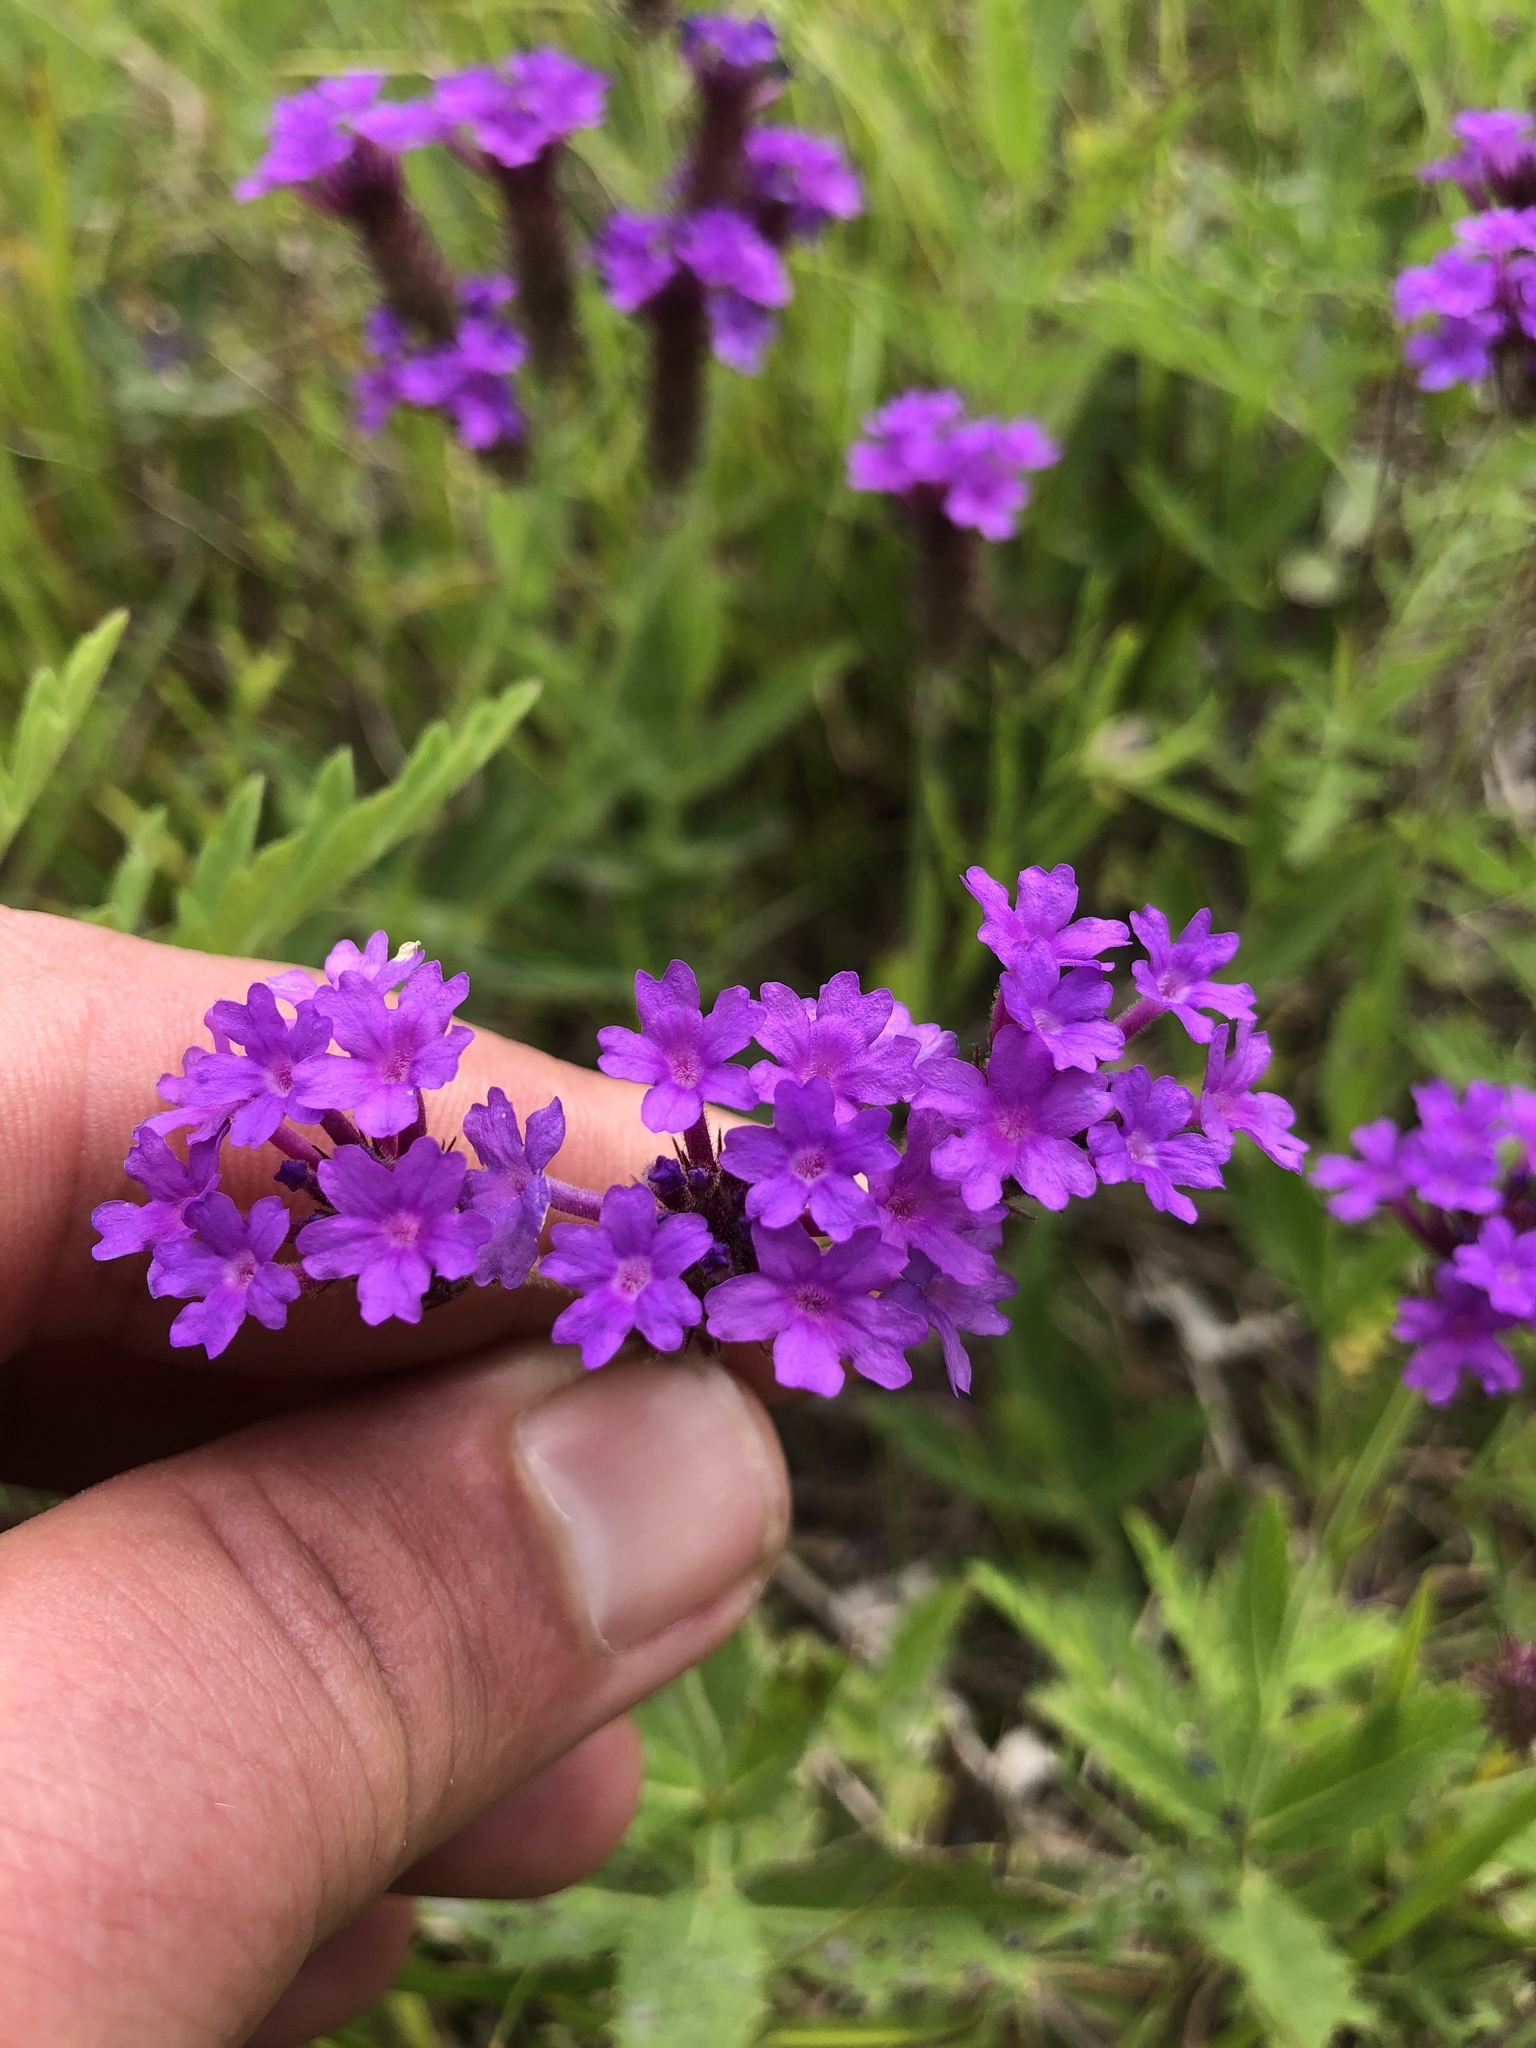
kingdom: Plantae
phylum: Tracheophyta
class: Magnoliopsida
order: Lamiales
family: Verbenaceae
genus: Verbena
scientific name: Verbena rigida
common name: Slender vervain
